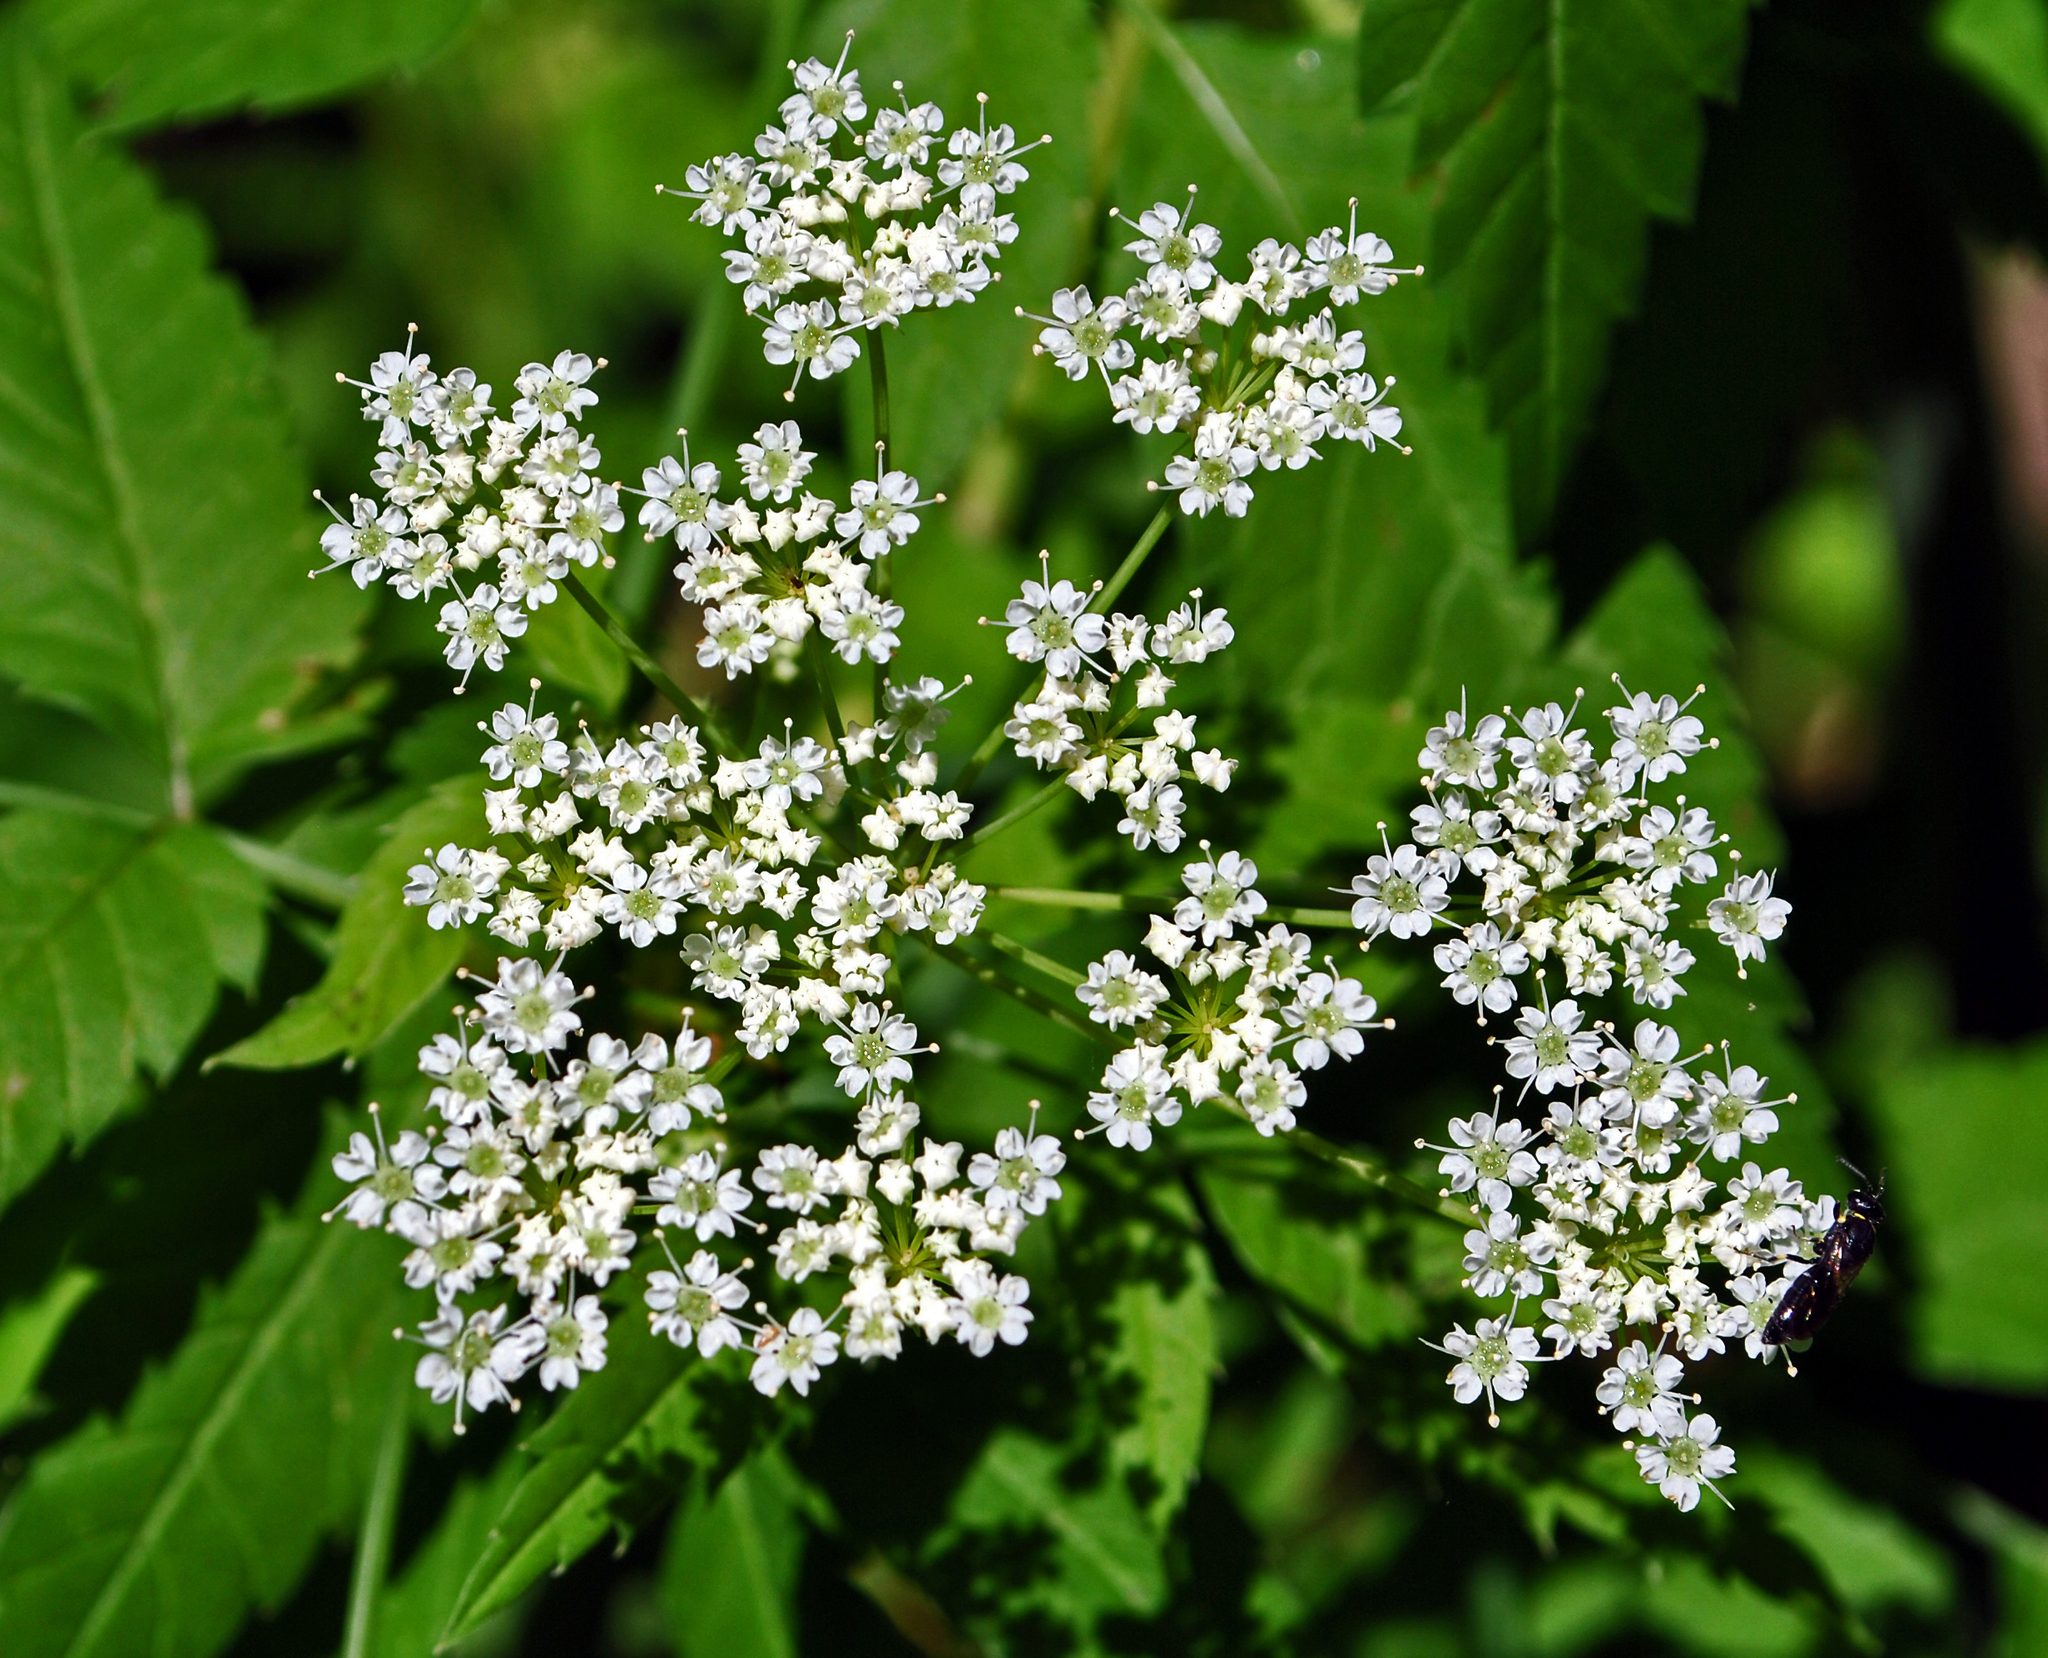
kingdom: Plantae
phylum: Tracheophyta
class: Magnoliopsida
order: Apiales
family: Apiaceae
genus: Cicuta
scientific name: Cicuta maculata
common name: Spotted cowbane
